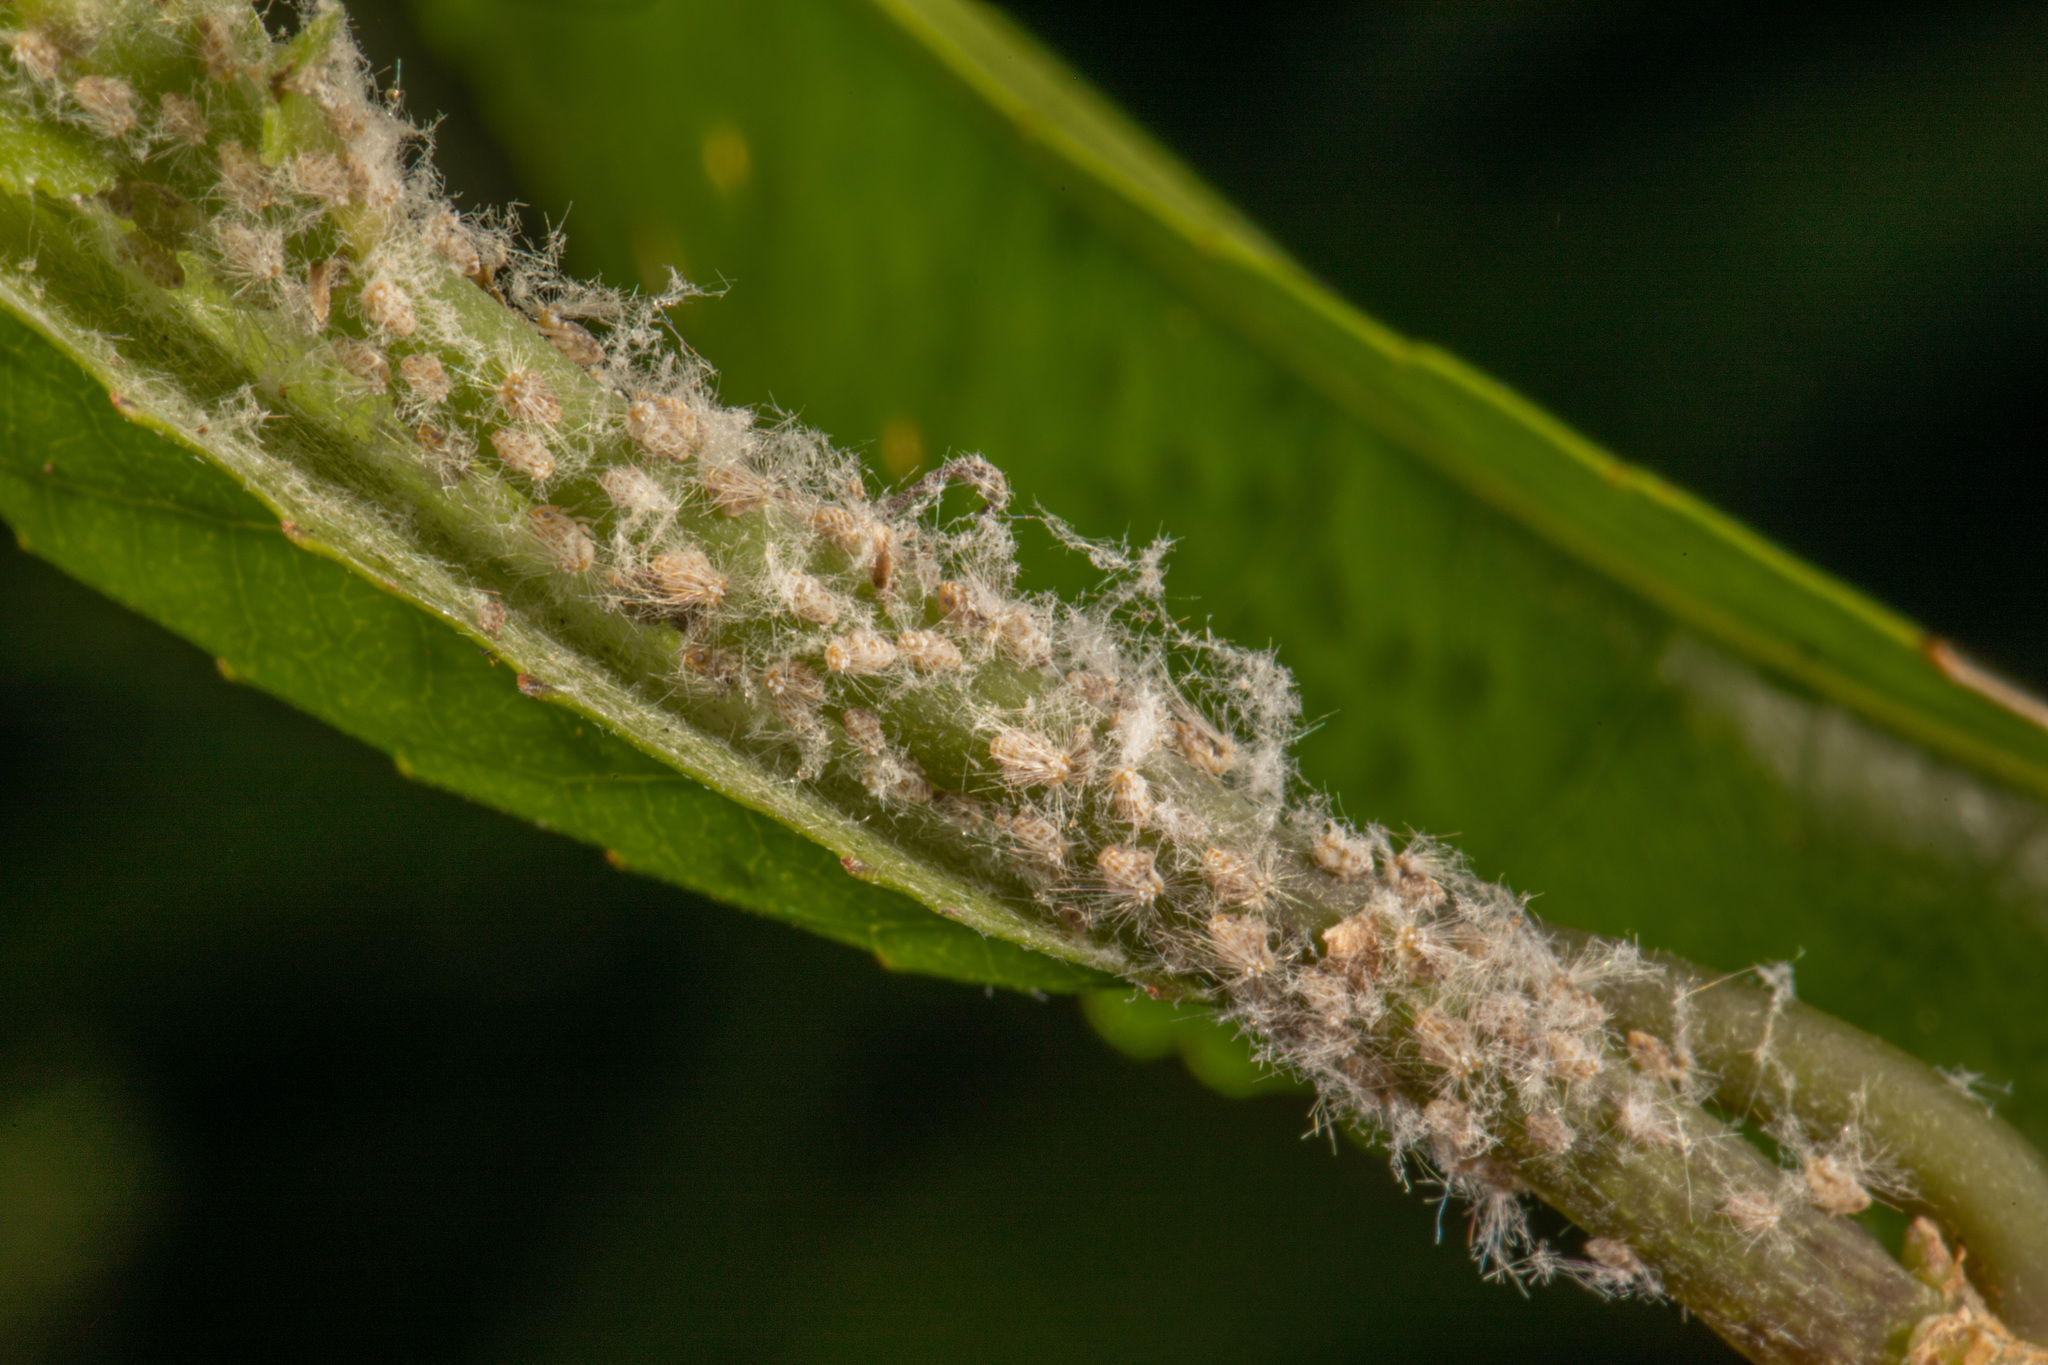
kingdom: Animalia
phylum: Arthropoda
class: Insecta
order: Hemiptera
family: Ricaniidae
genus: Scolypopa
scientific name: Scolypopa australis
